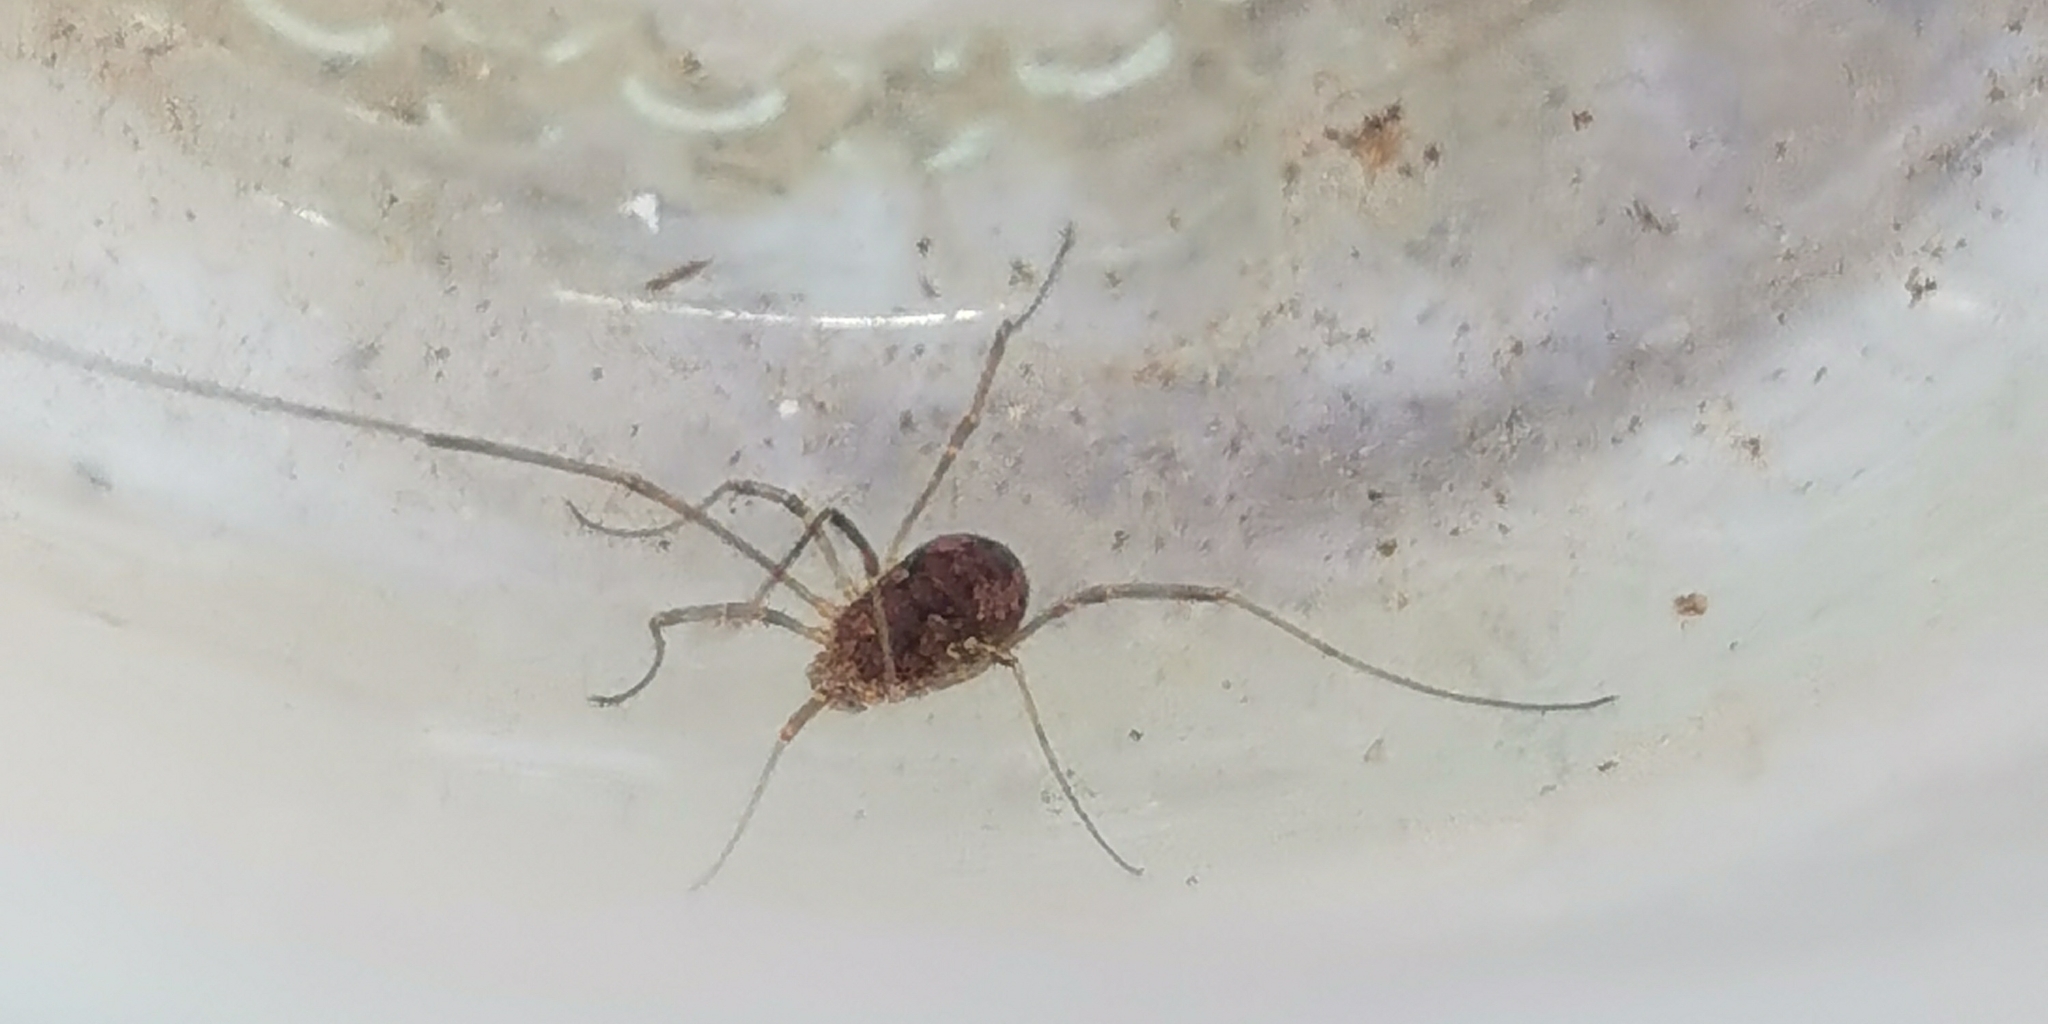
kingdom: Animalia
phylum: Arthropoda
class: Arachnida
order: Opiliones
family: Phalangiidae
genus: Phalangium
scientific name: Phalangium opilio
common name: Daddy longleg
